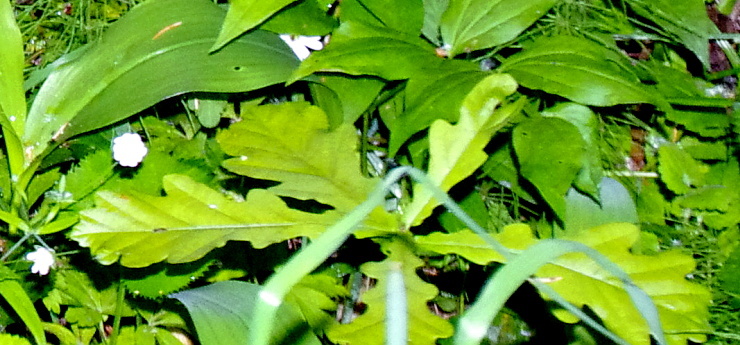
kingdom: Plantae
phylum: Tracheophyta
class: Magnoliopsida
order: Fagales
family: Fagaceae
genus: Quercus
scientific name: Quercus robur
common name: Pedunculate oak
